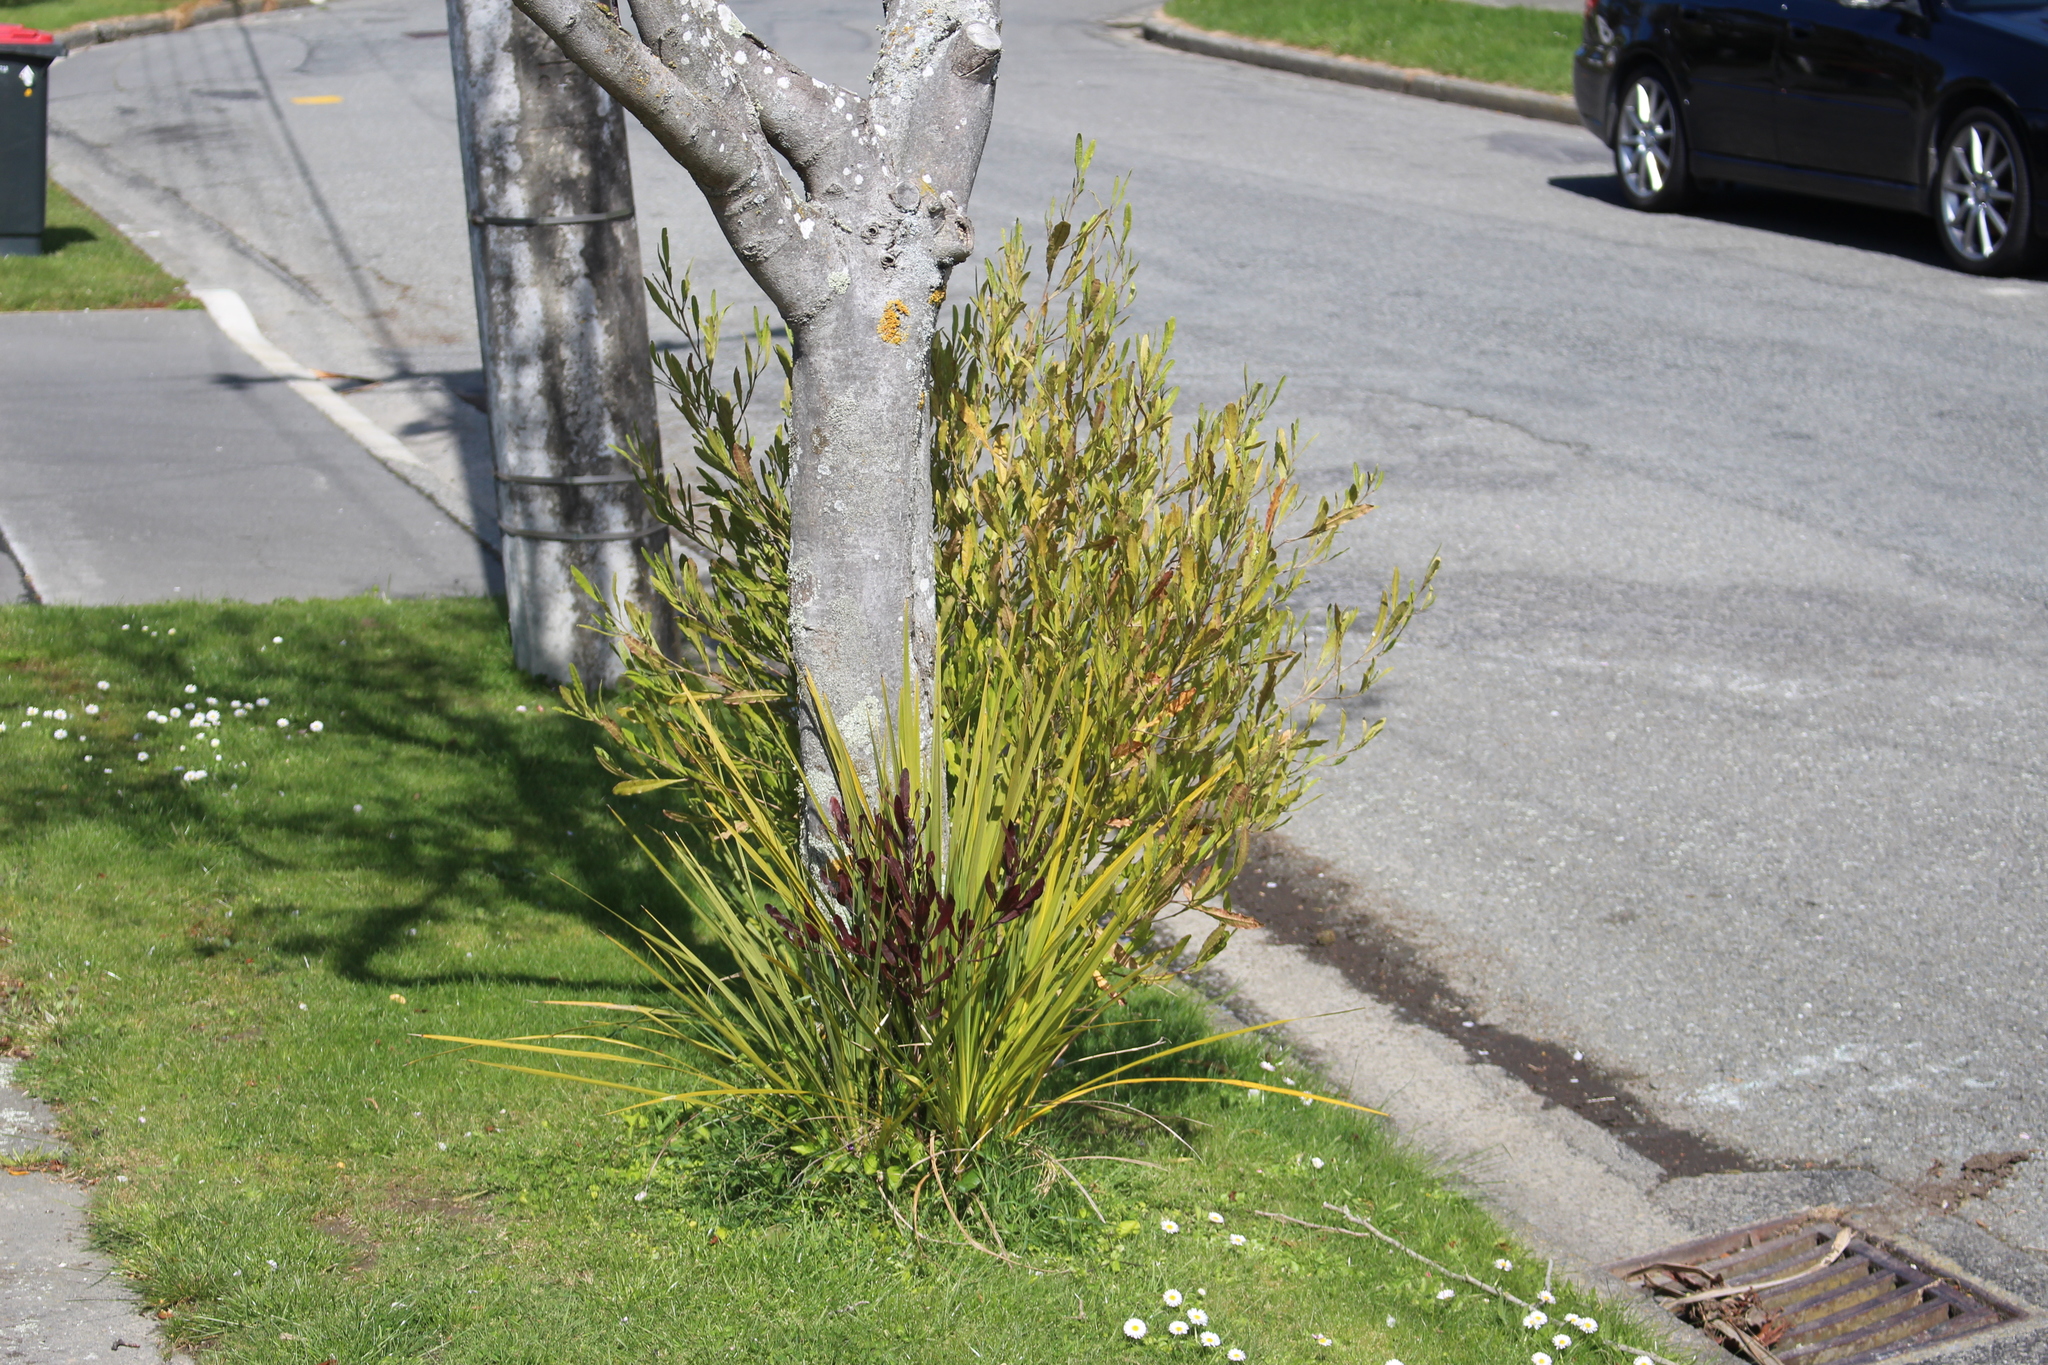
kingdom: Plantae
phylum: Tracheophyta
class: Magnoliopsida
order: Sapindales
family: Sapindaceae
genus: Dodonaea
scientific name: Dodonaea viscosa
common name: Hopbush
